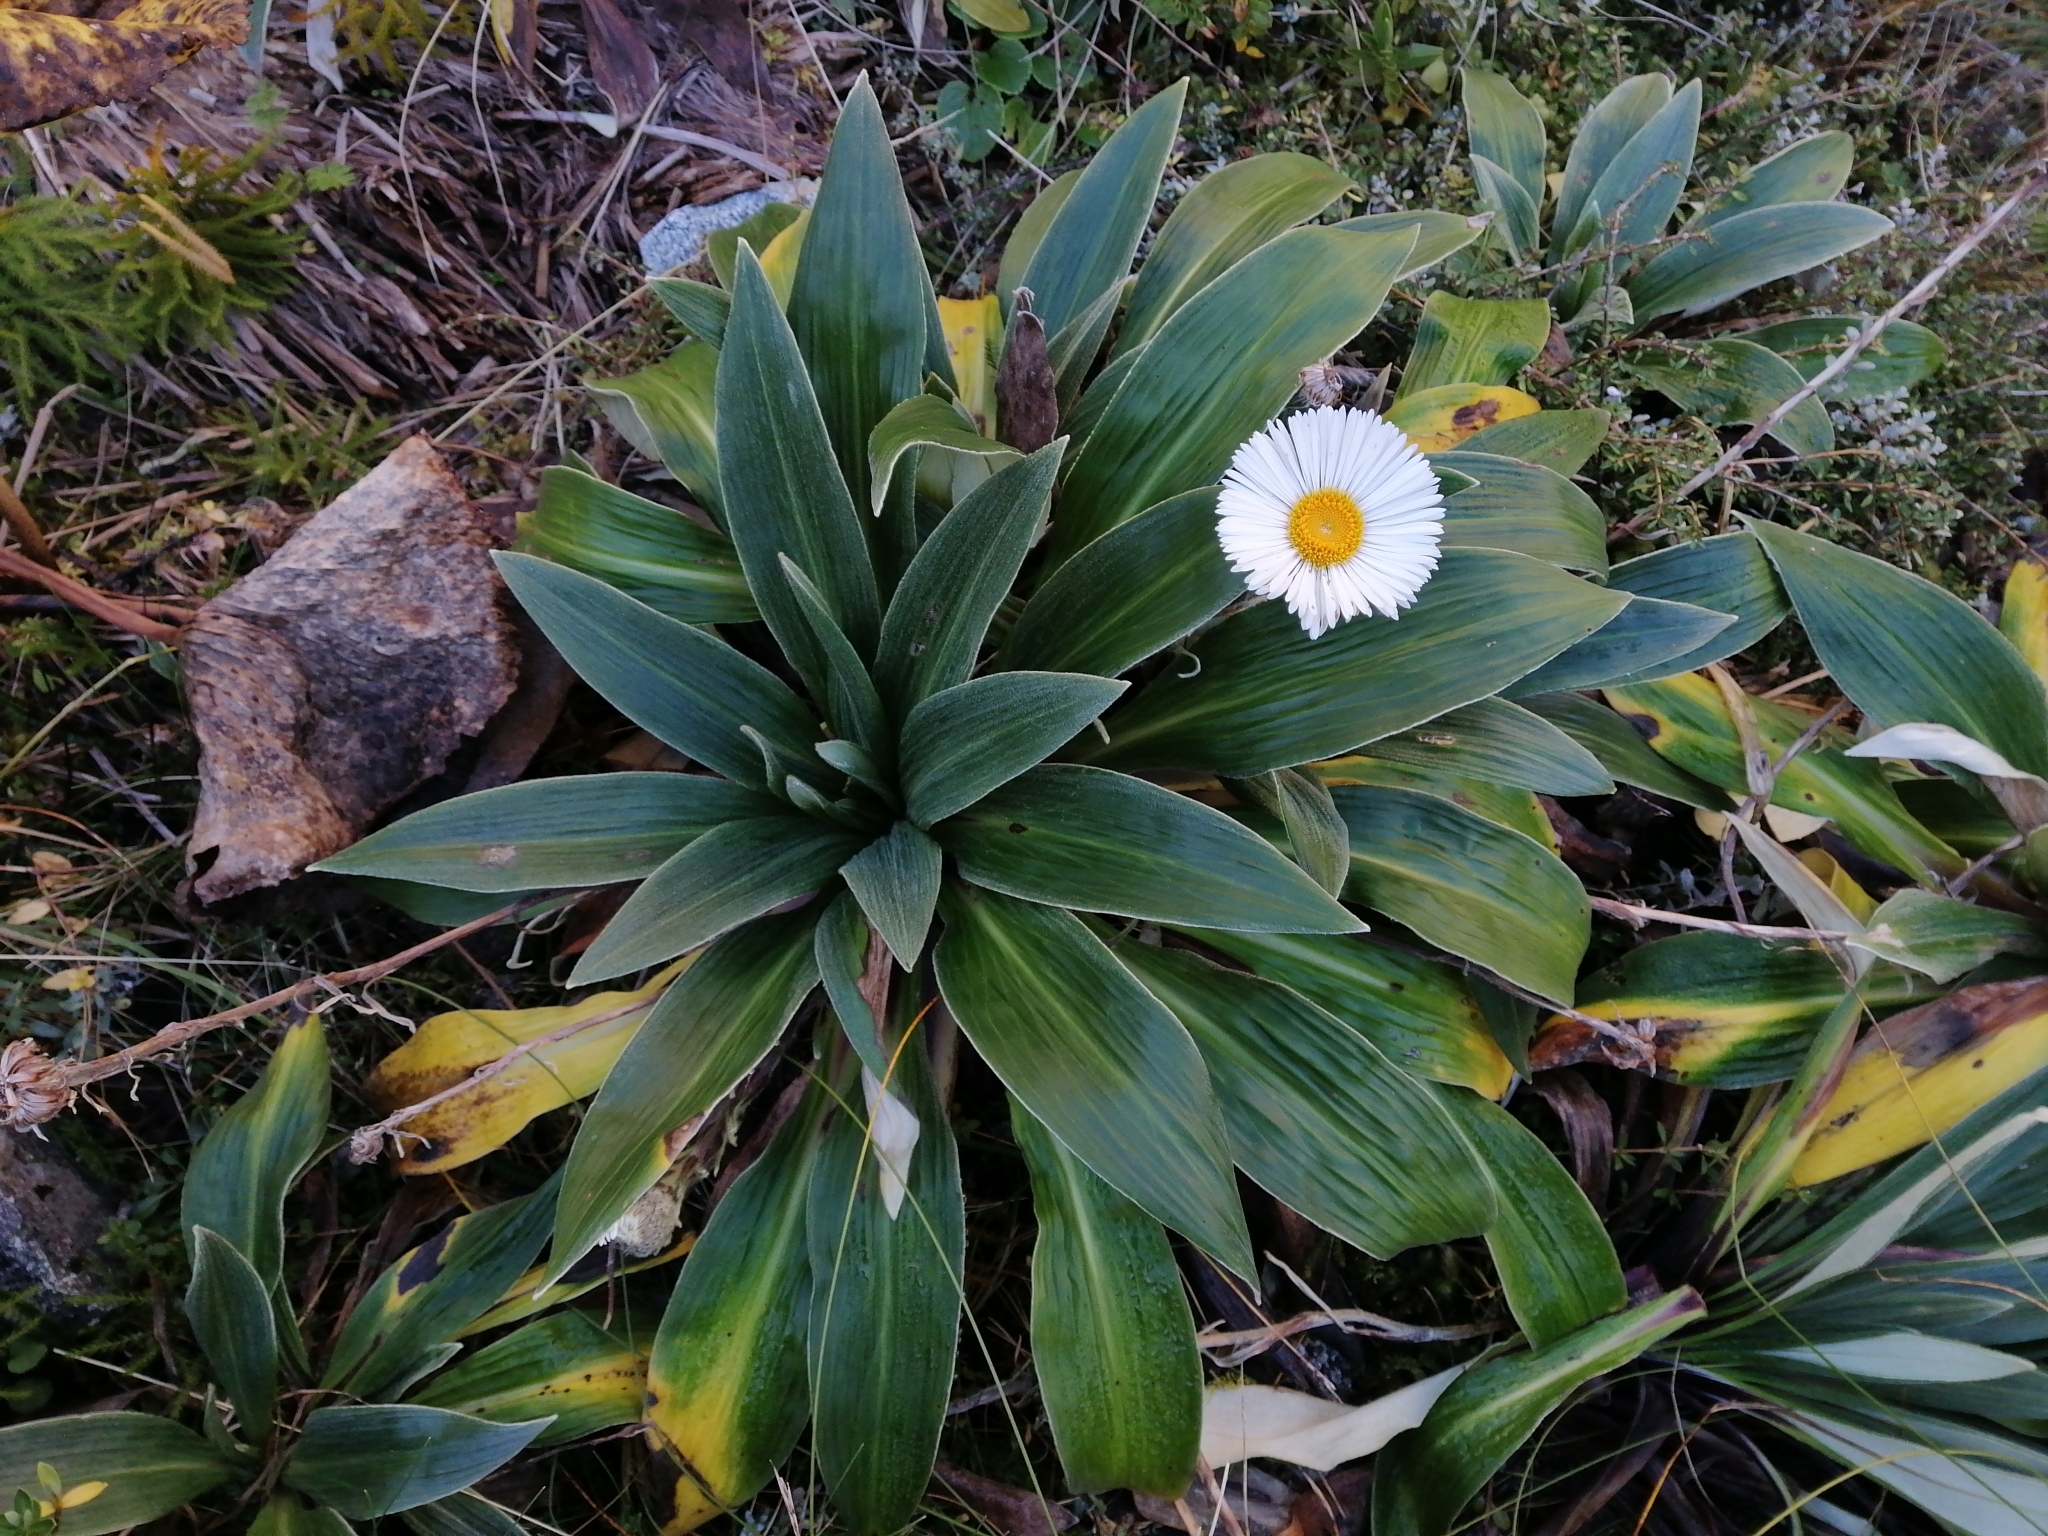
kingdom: Plantae
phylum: Tracheophyta
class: Magnoliopsida
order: Asterales
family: Asteraceae
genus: Celmisia
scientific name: Celmisia verbascifolia
